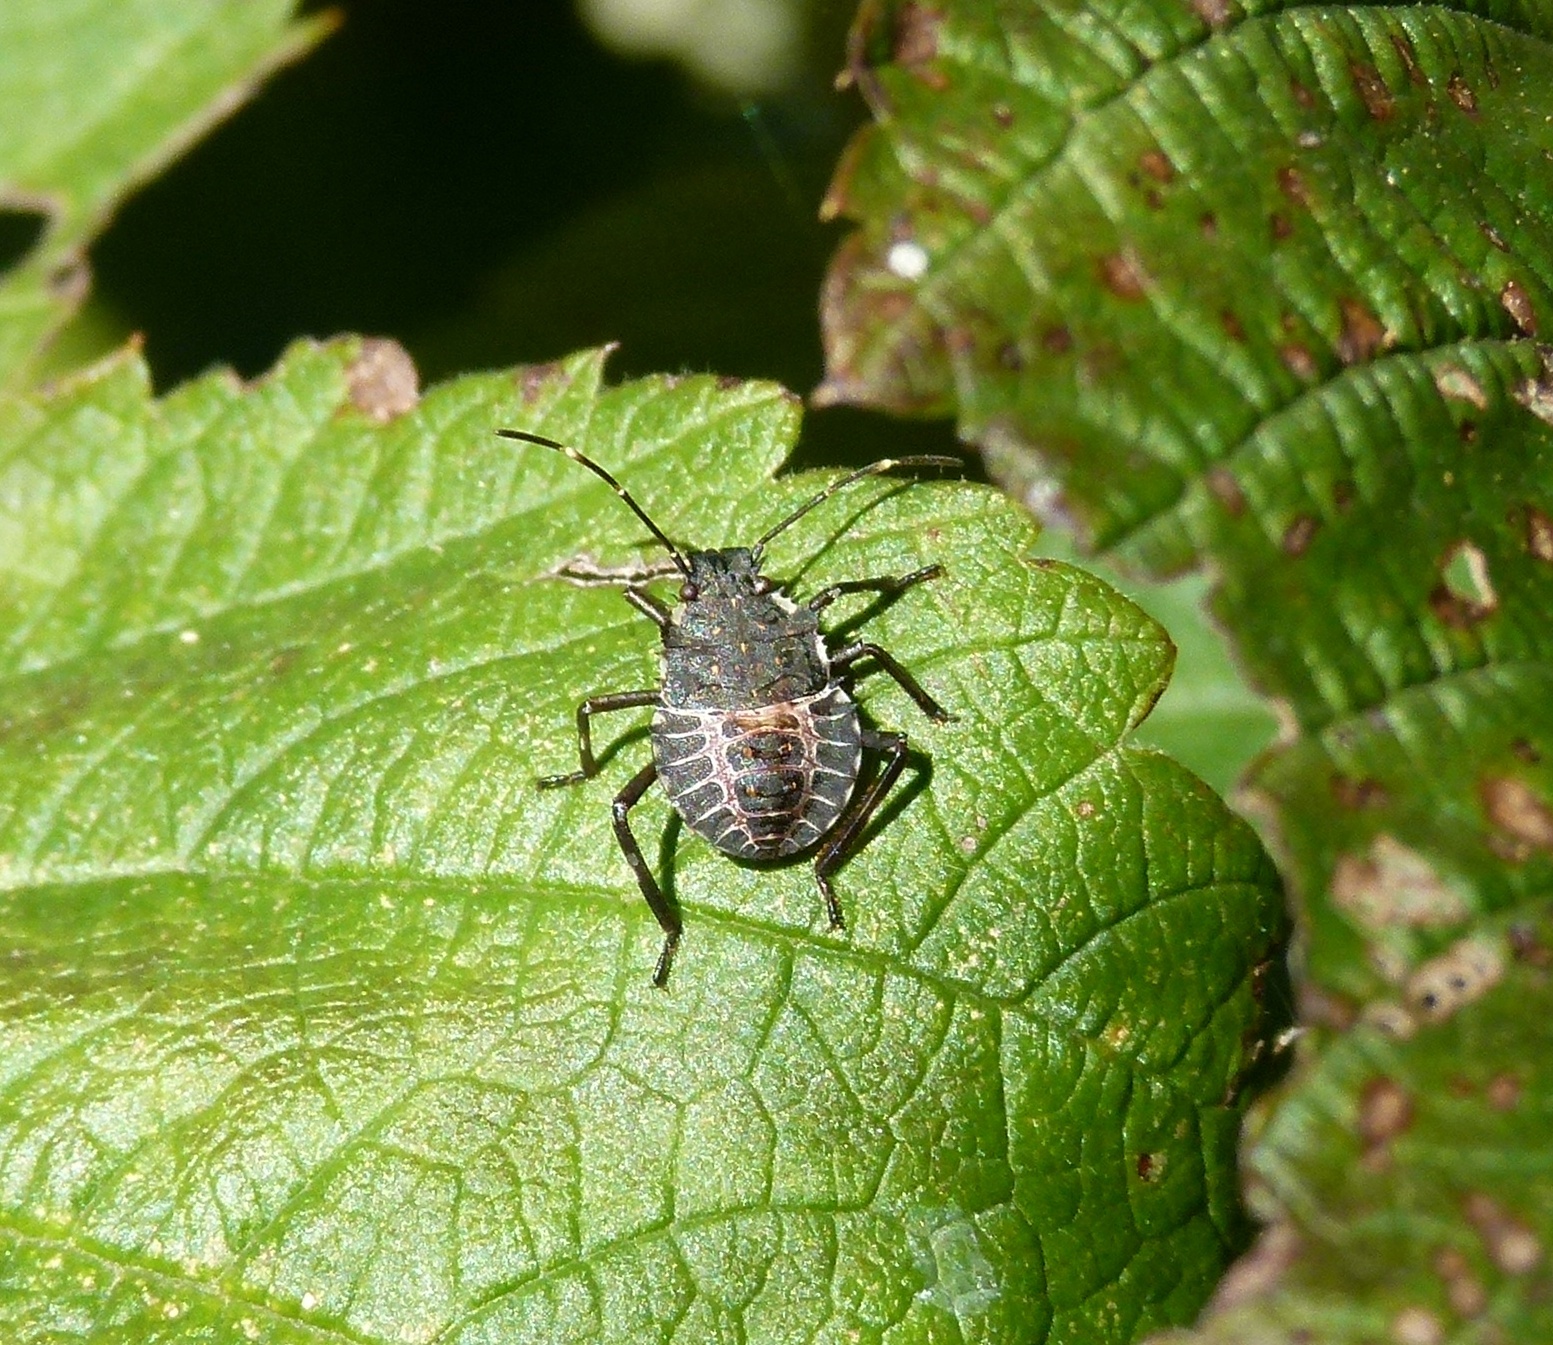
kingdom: Animalia
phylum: Arthropoda
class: Insecta
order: Hemiptera
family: Pentatomidae
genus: Halyomorpha
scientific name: Halyomorpha halys
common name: Brown marmorated stink bug
